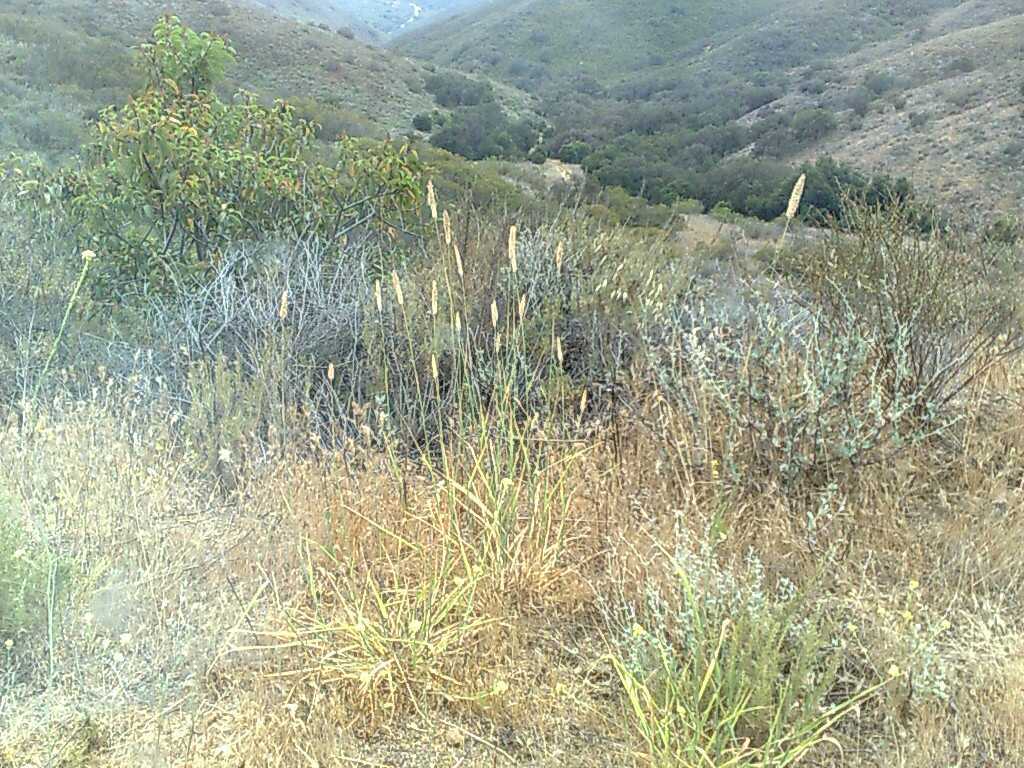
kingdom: Plantae
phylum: Tracheophyta
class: Magnoliopsida
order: Lamiales
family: Lamiaceae
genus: Salvia
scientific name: Salvia leucophylla
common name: Purple sage
